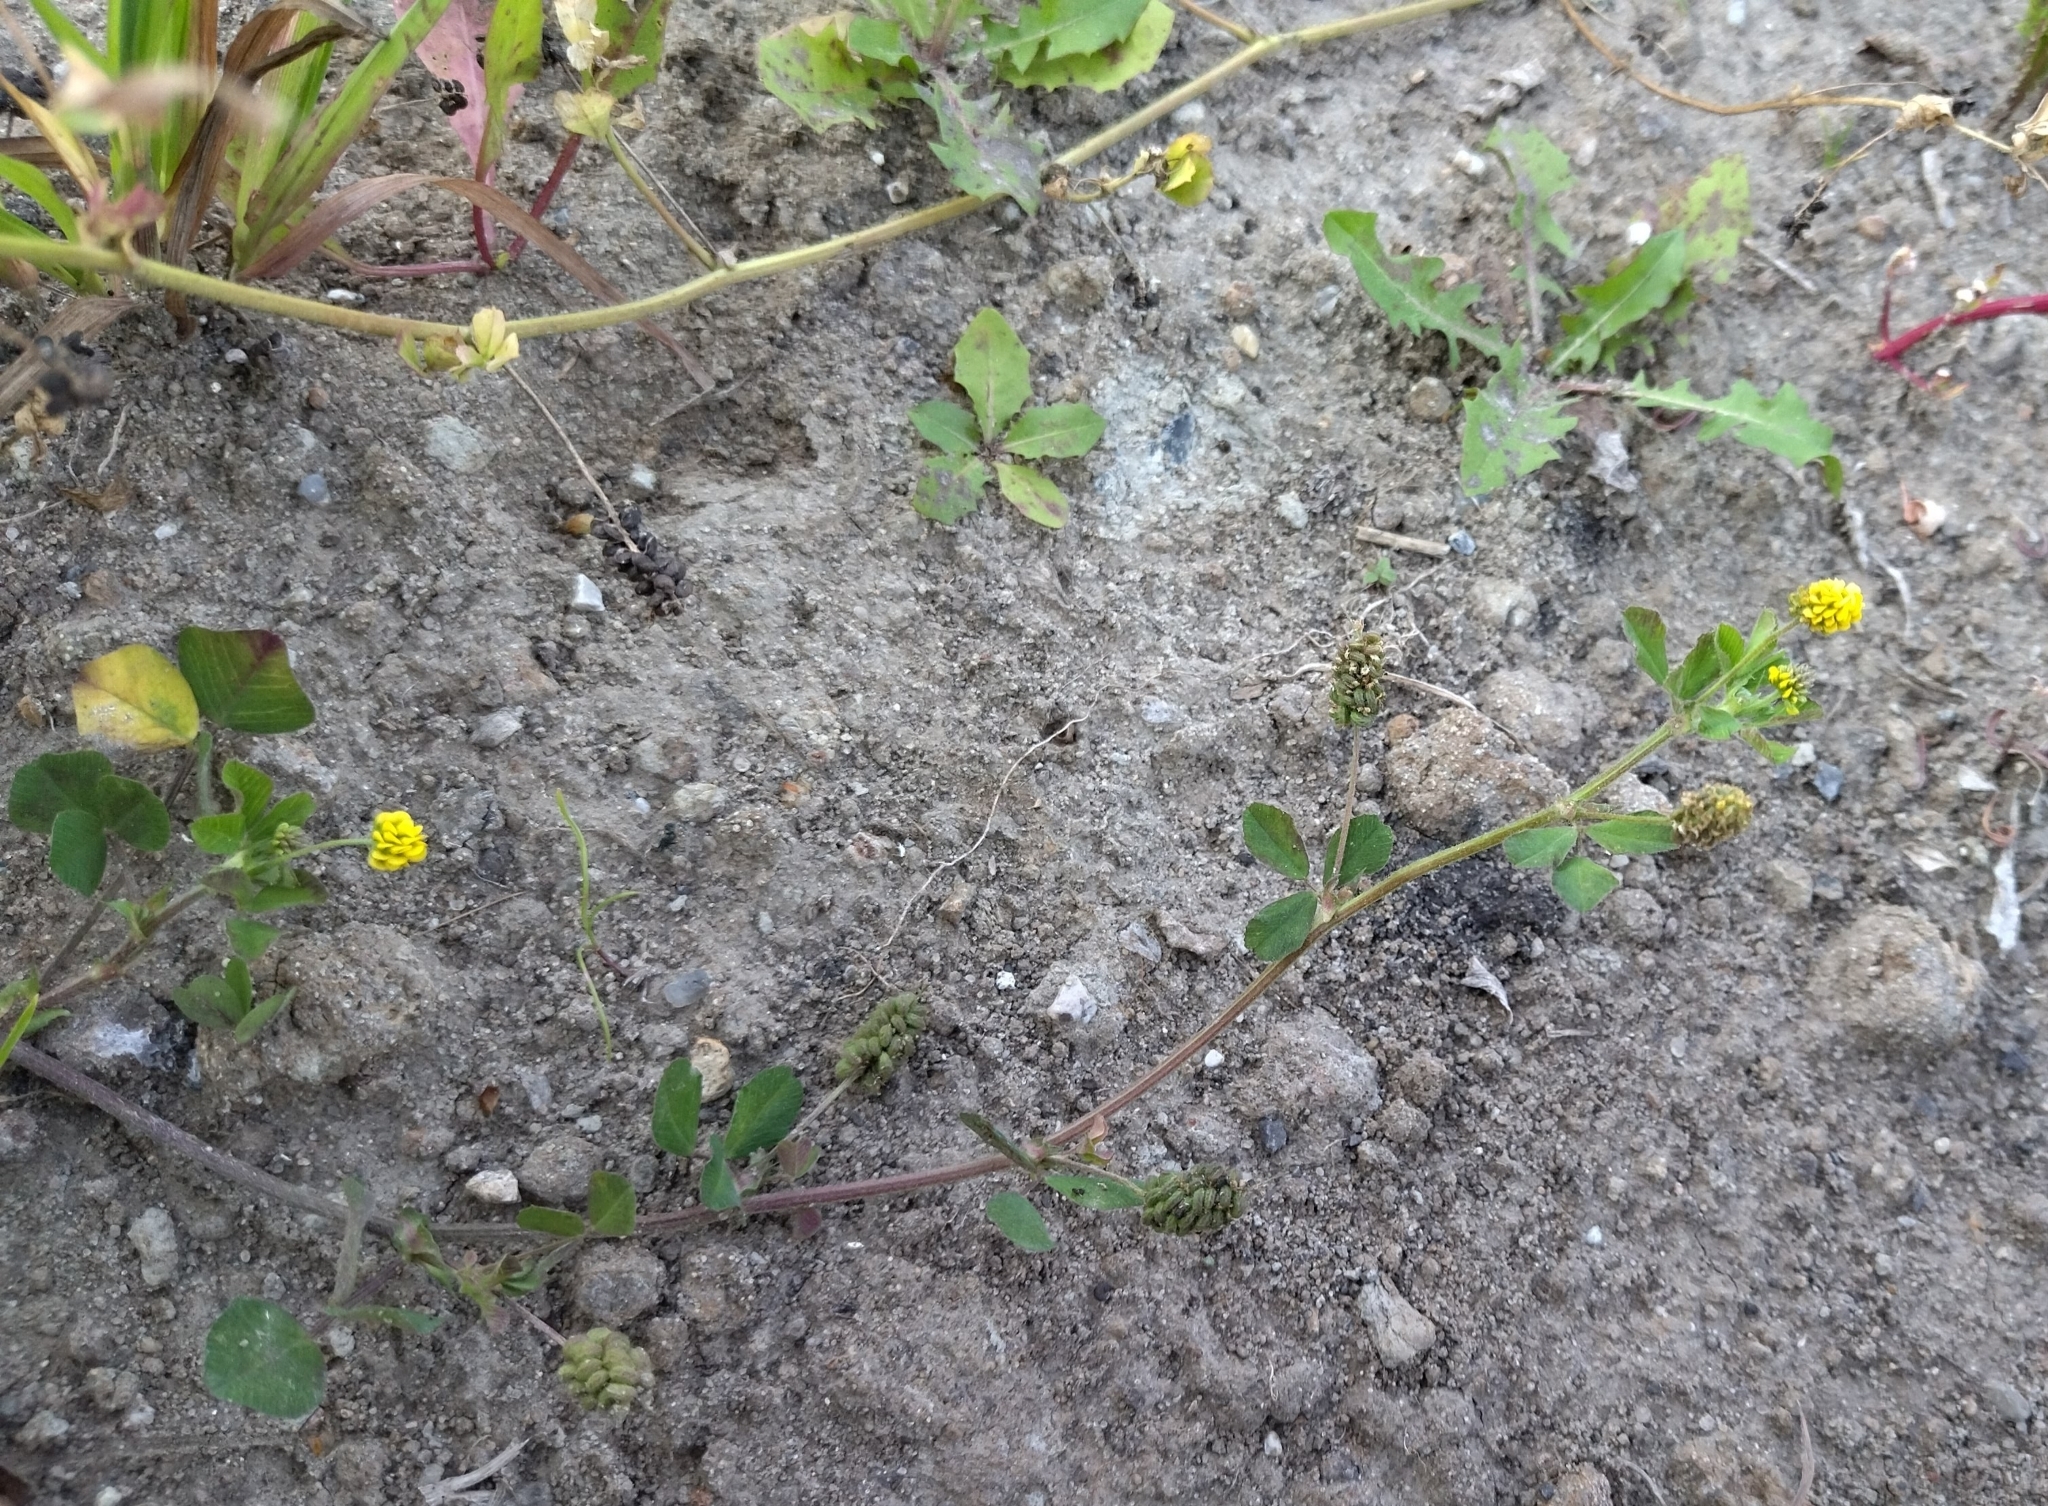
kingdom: Plantae
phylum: Tracheophyta
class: Magnoliopsida
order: Fabales
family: Fabaceae
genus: Medicago
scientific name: Medicago lupulina
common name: Black medick
